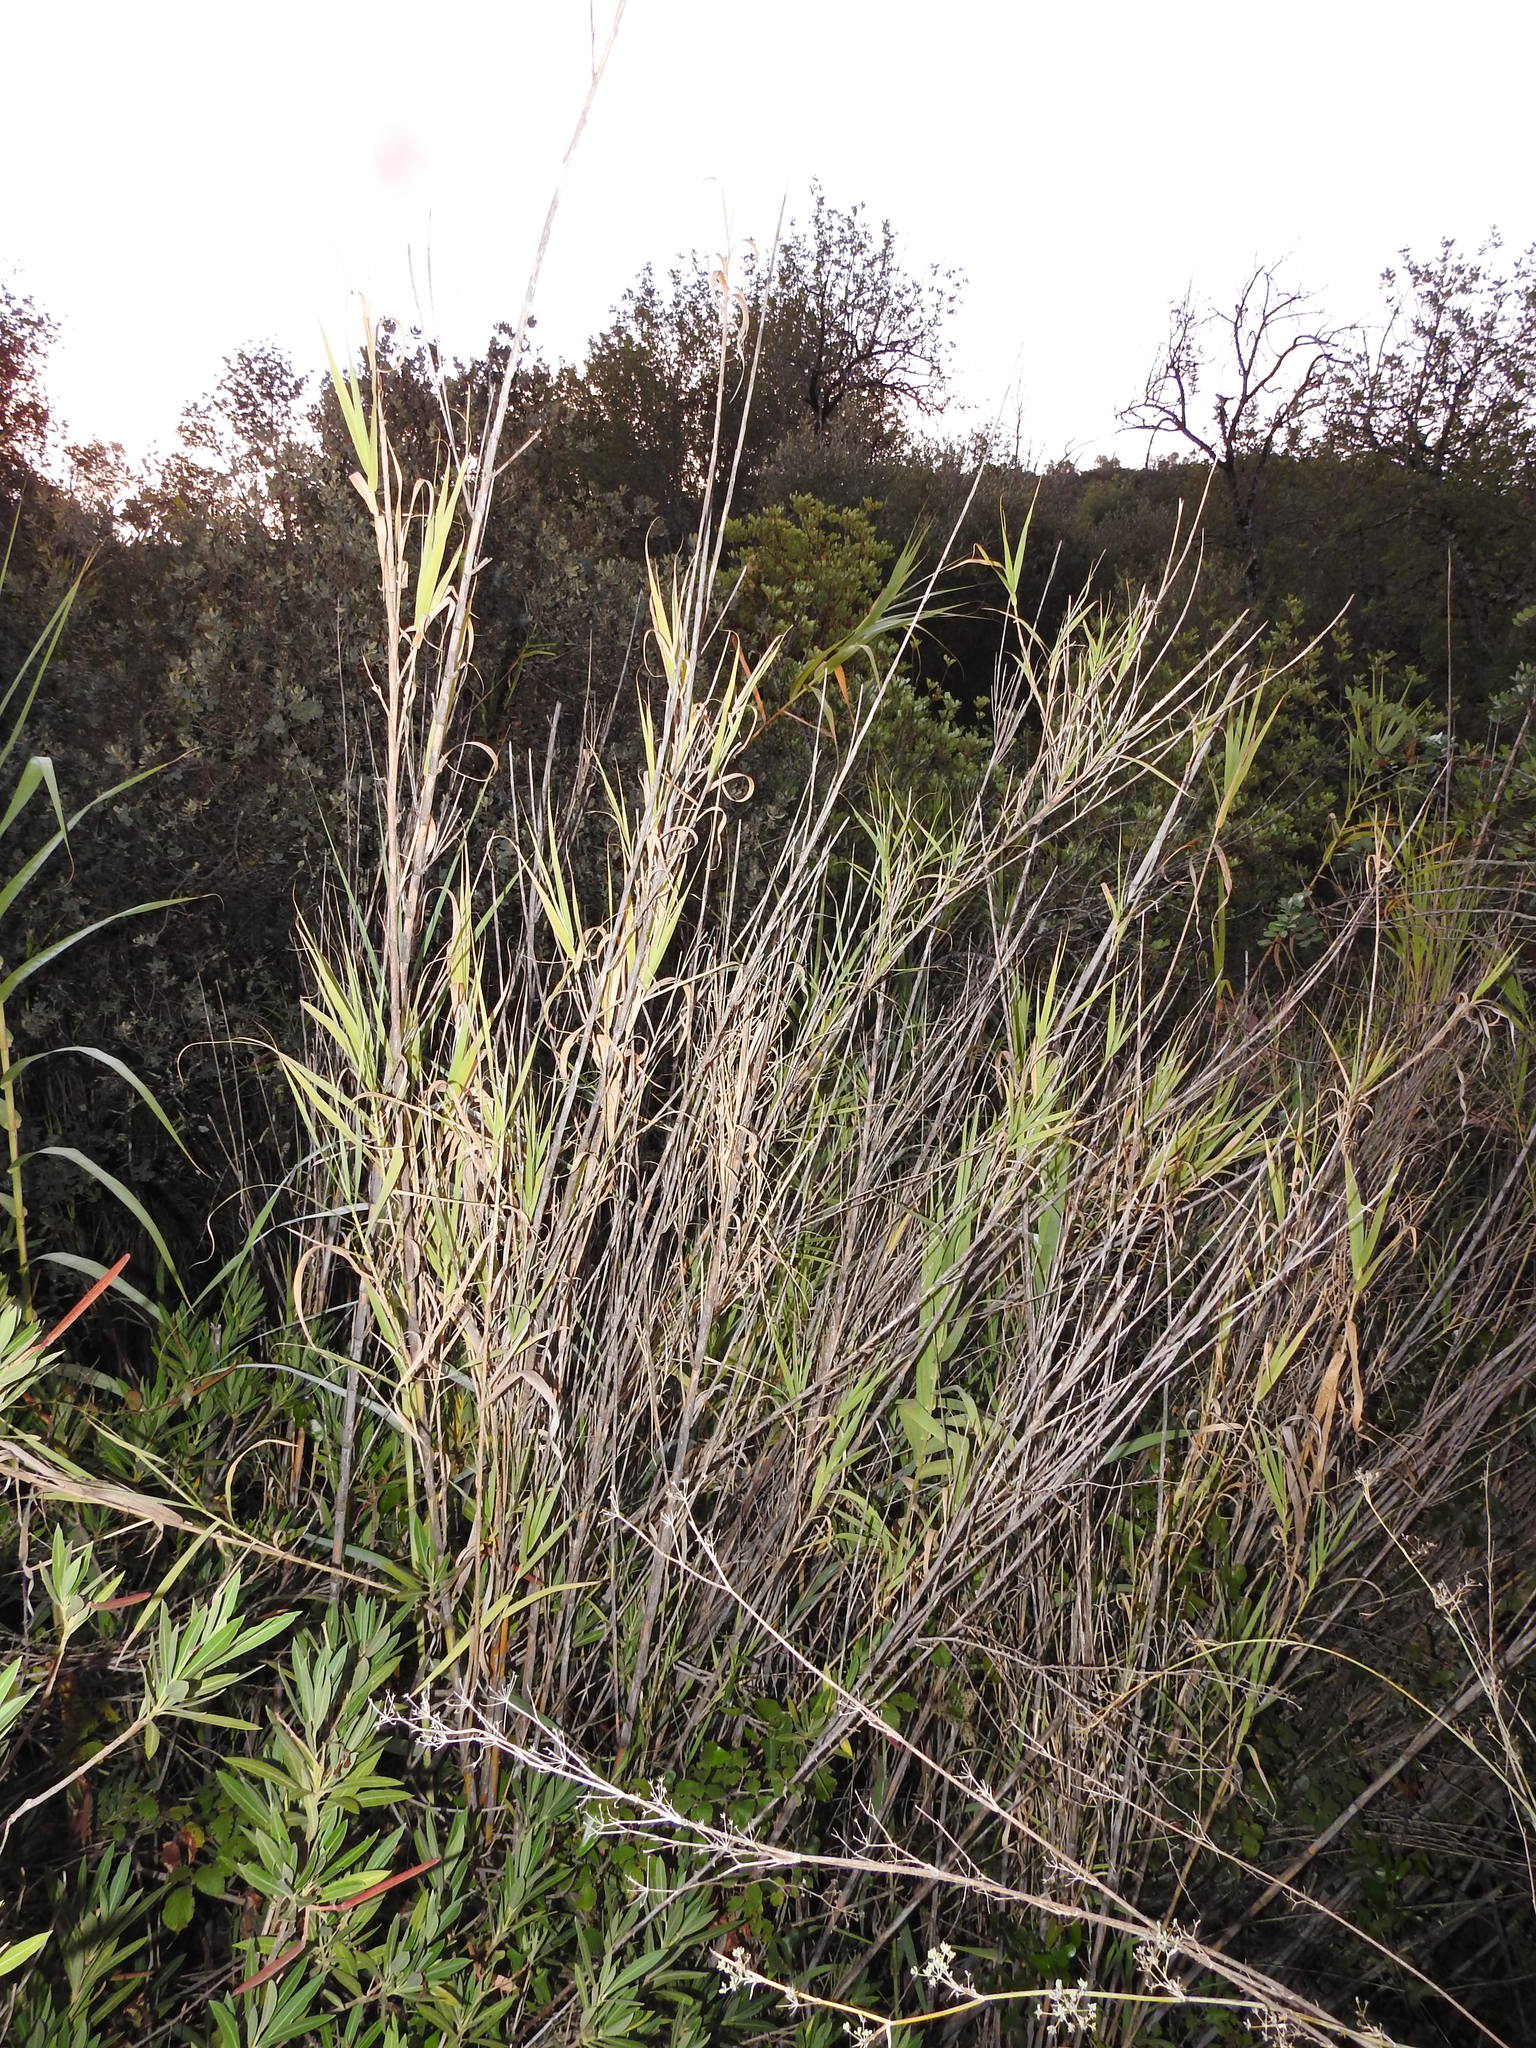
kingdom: Plantae
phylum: Tracheophyta
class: Liliopsida
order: Poales
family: Poaceae
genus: Arundo
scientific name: Arundo donax
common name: Giant reed
